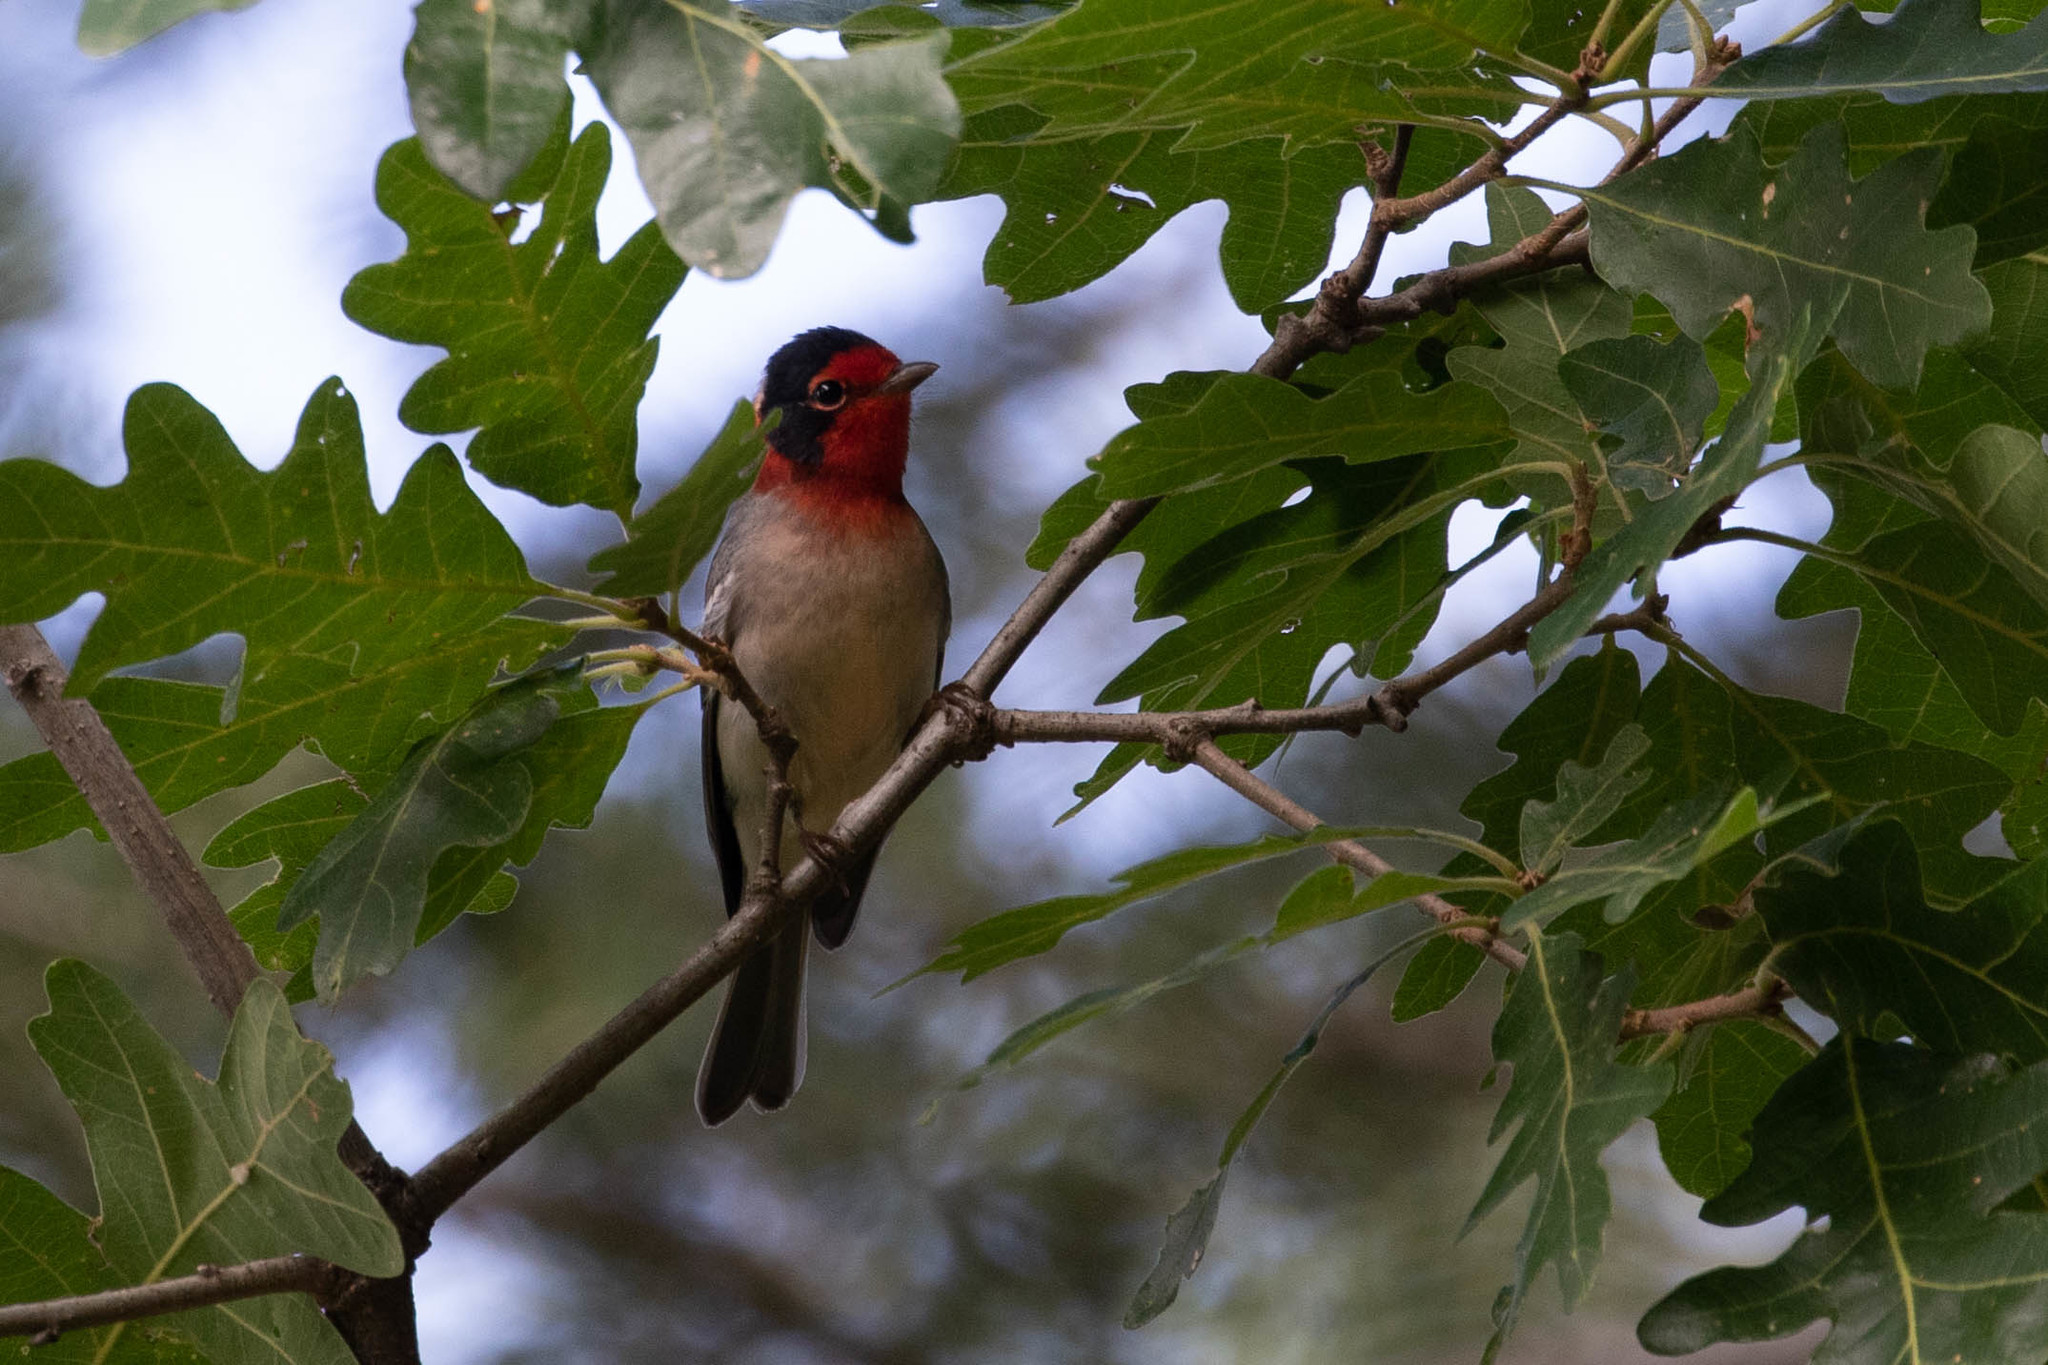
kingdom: Animalia
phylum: Chordata
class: Aves
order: Passeriformes
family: Parulidae
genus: Cardellina
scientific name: Cardellina rubrifrons
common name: Red-faced warbler
